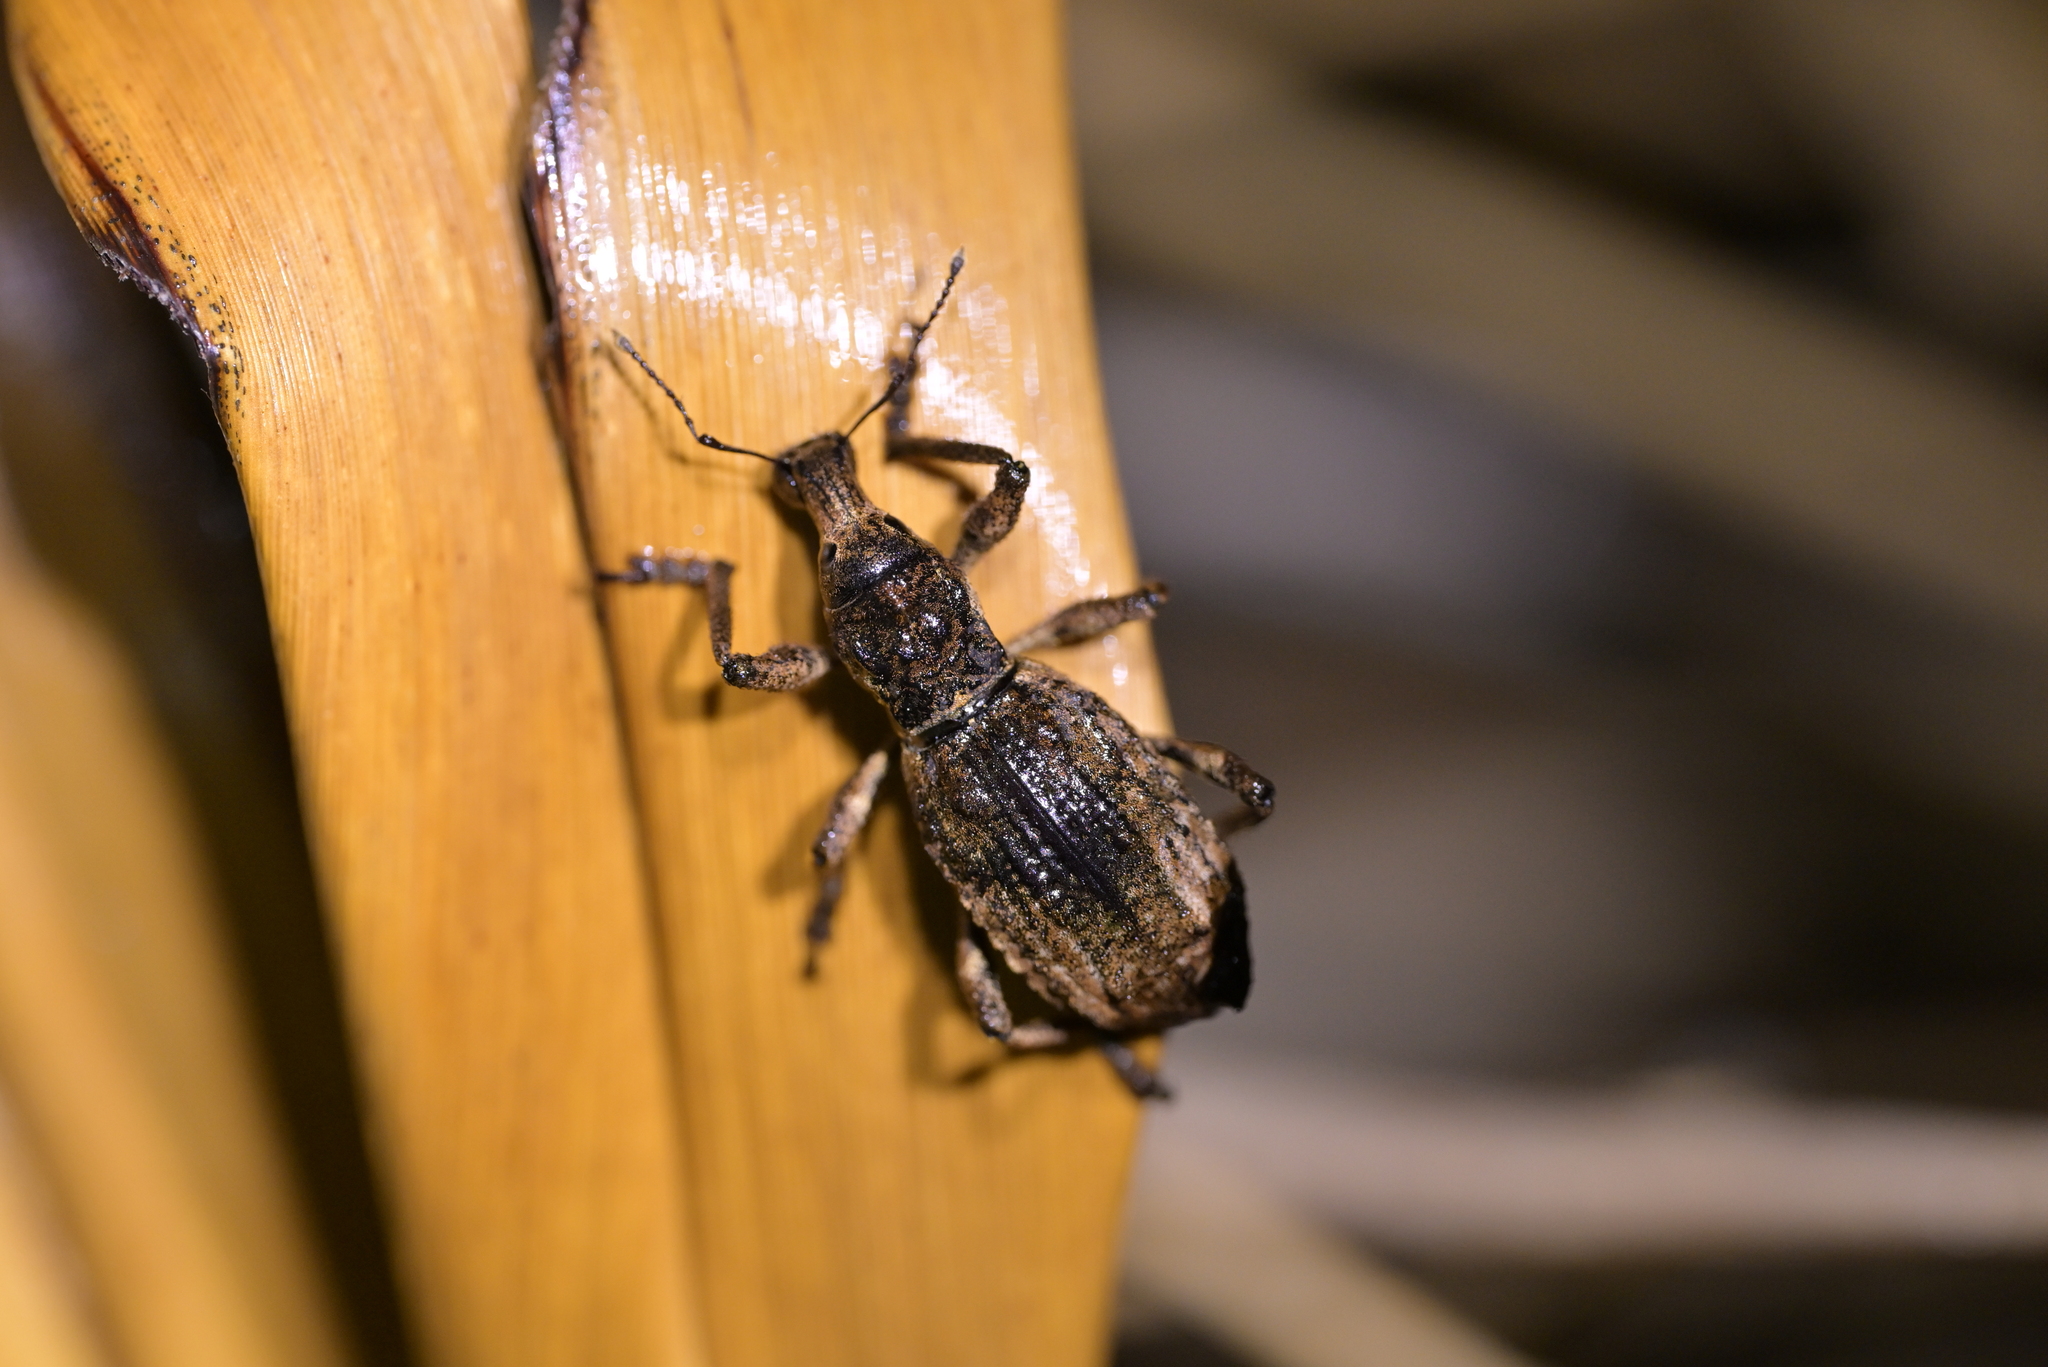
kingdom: Animalia
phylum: Arthropoda
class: Insecta
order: Coleoptera
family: Curculionidae
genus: Anagotus
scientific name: Anagotus fairburni
